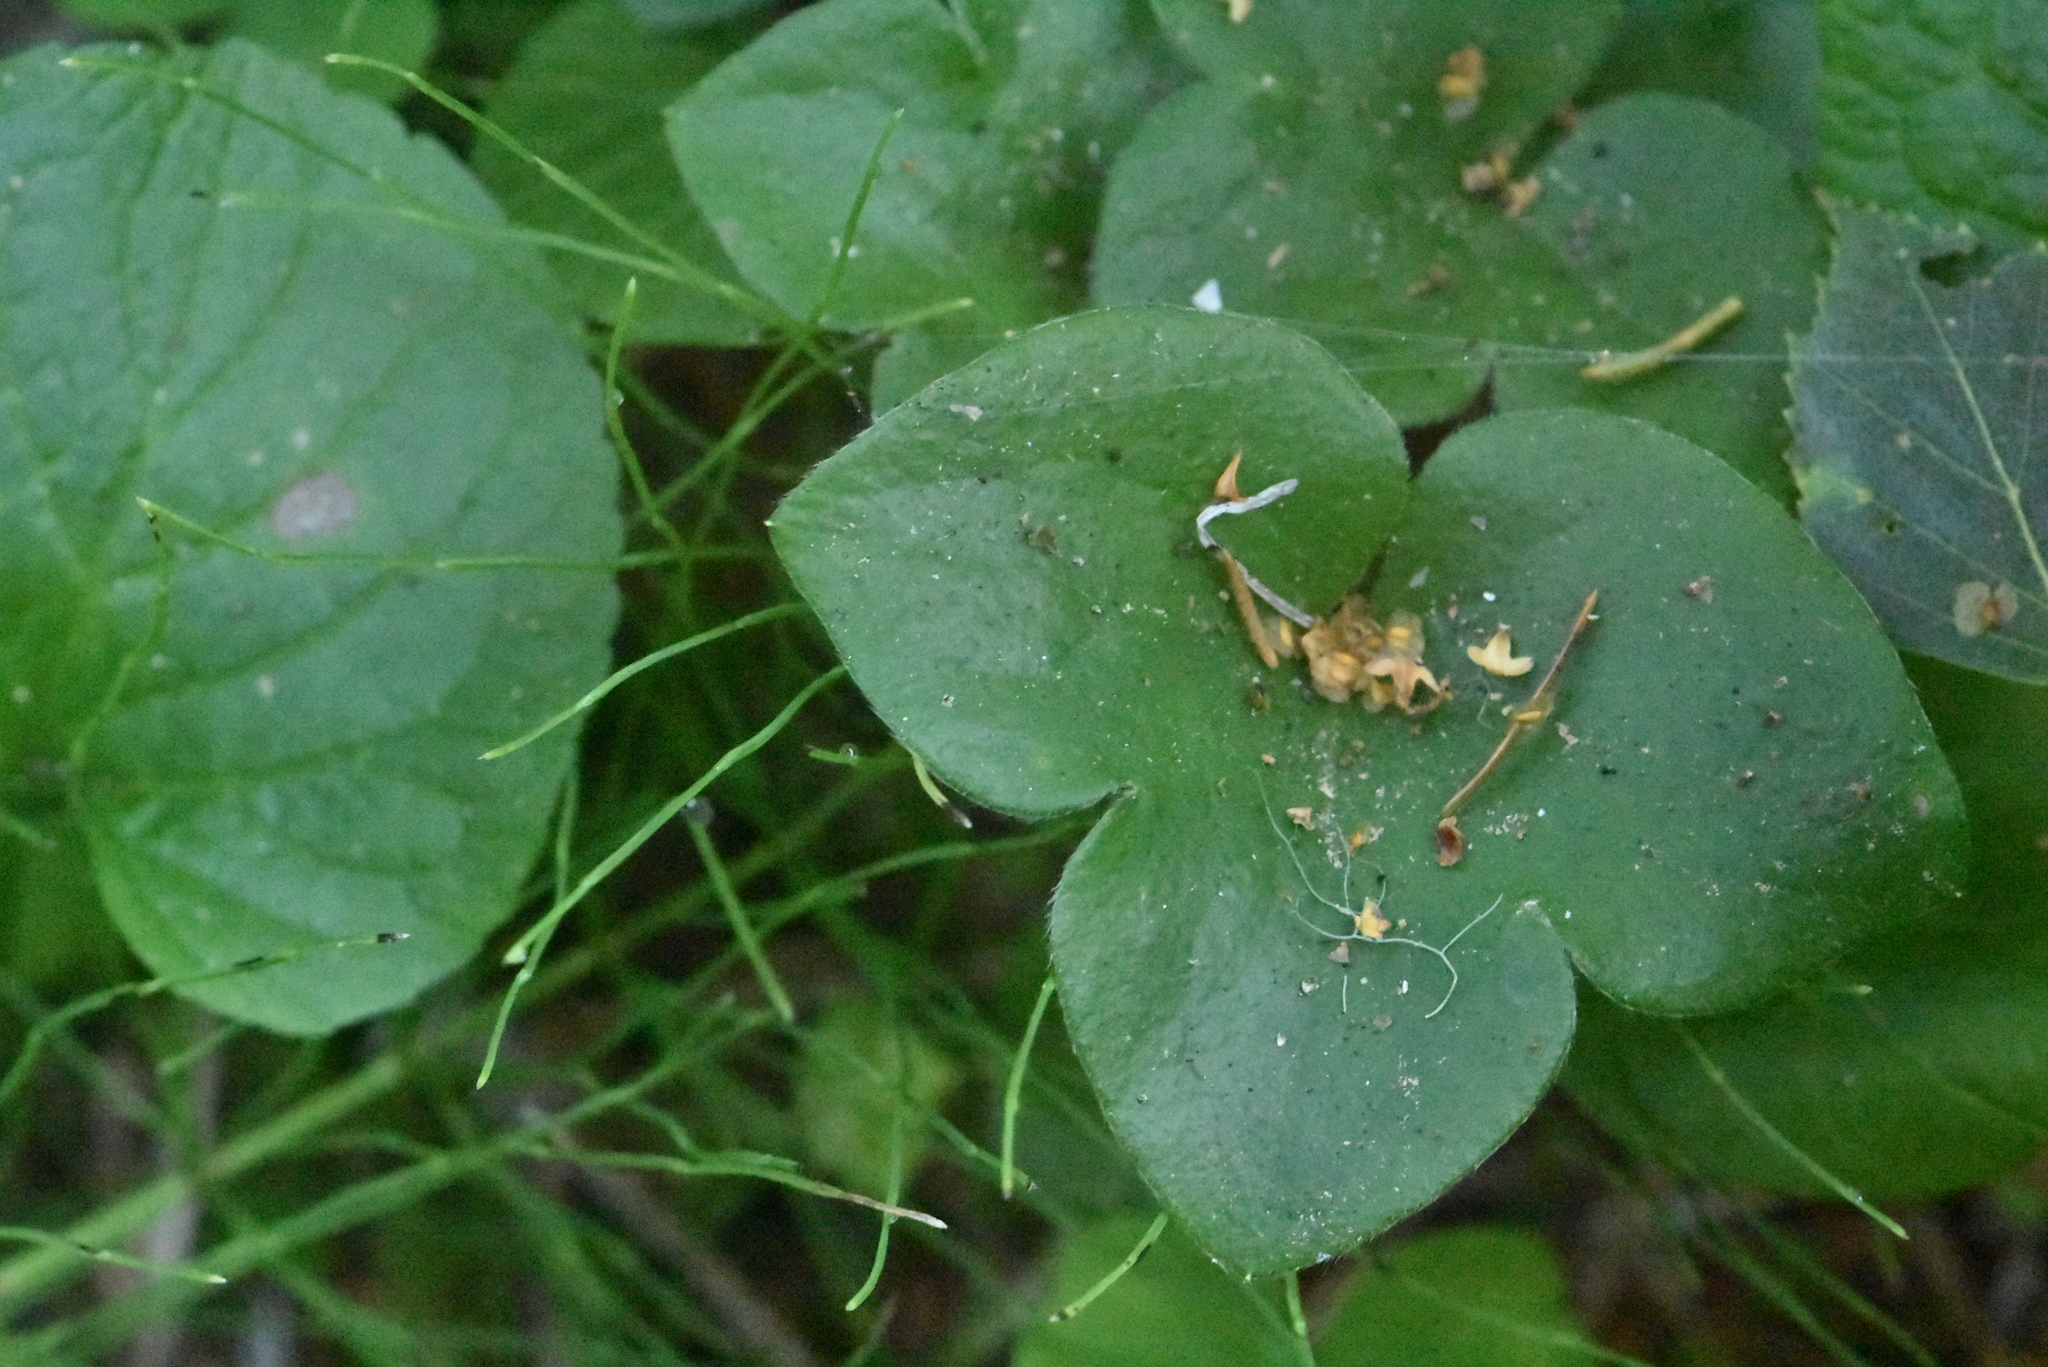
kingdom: Plantae
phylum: Tracheophyta
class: Magnoliopsida
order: Ranunculales
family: Ranunculaceae
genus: Hepatica
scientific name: Hepatica nobilis
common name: Liverleaf
